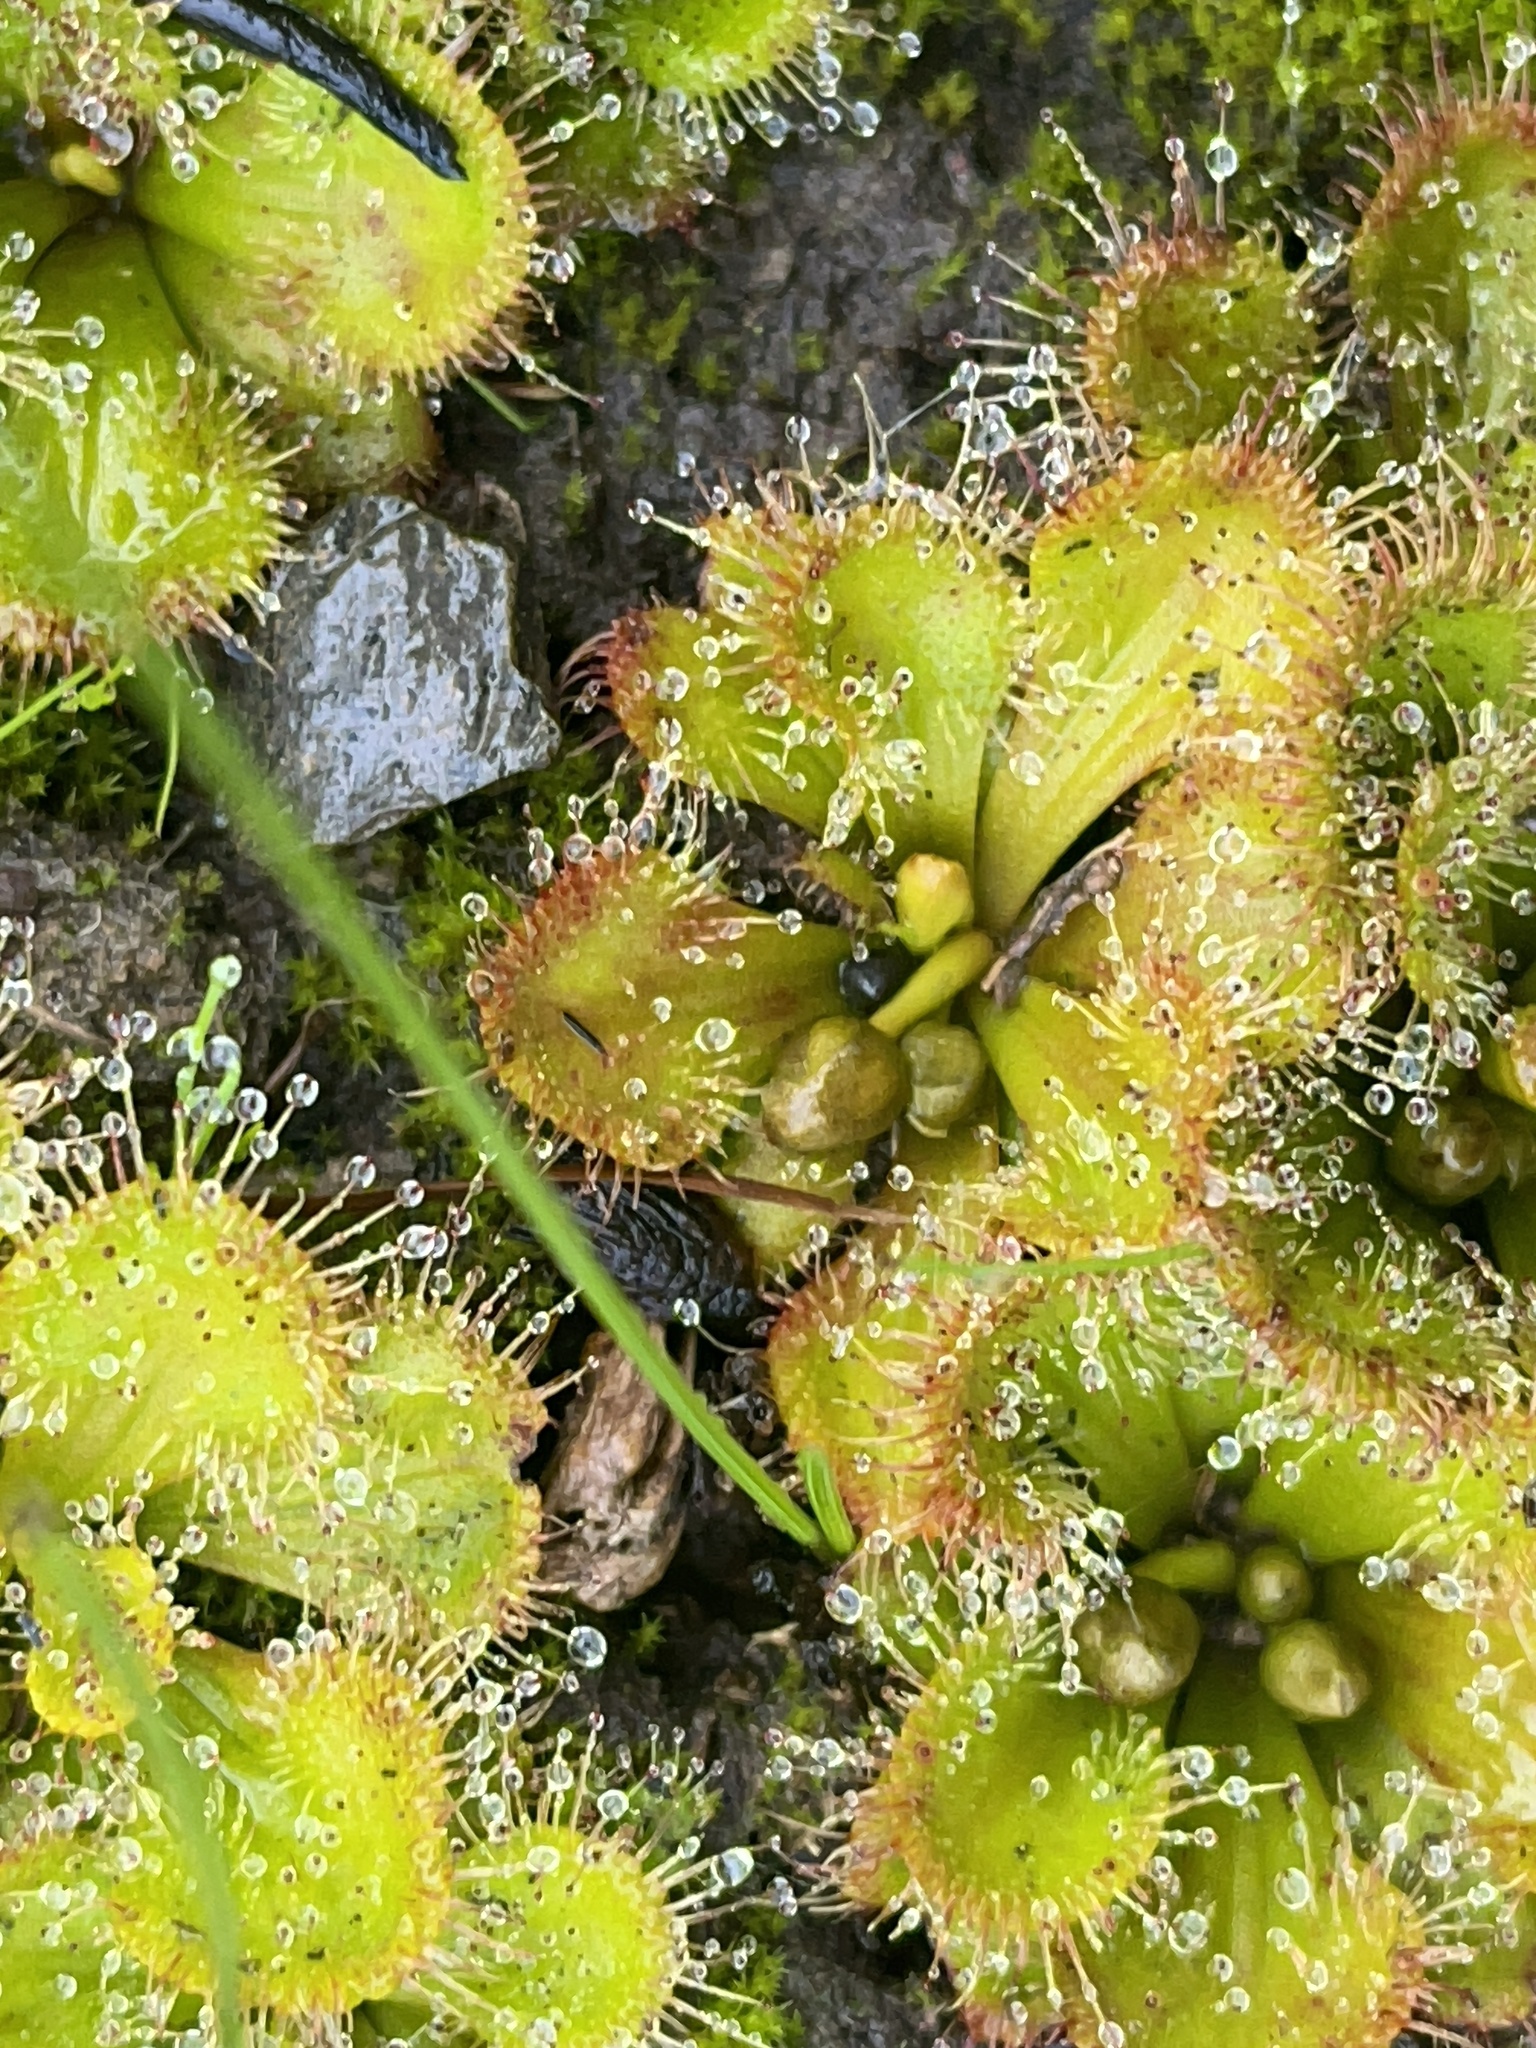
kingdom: Plantae
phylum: Tracheophyta
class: Magnoliopsida
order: Caryophyllales
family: Droseraceae
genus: Drosera
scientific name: Drosera aberrans
